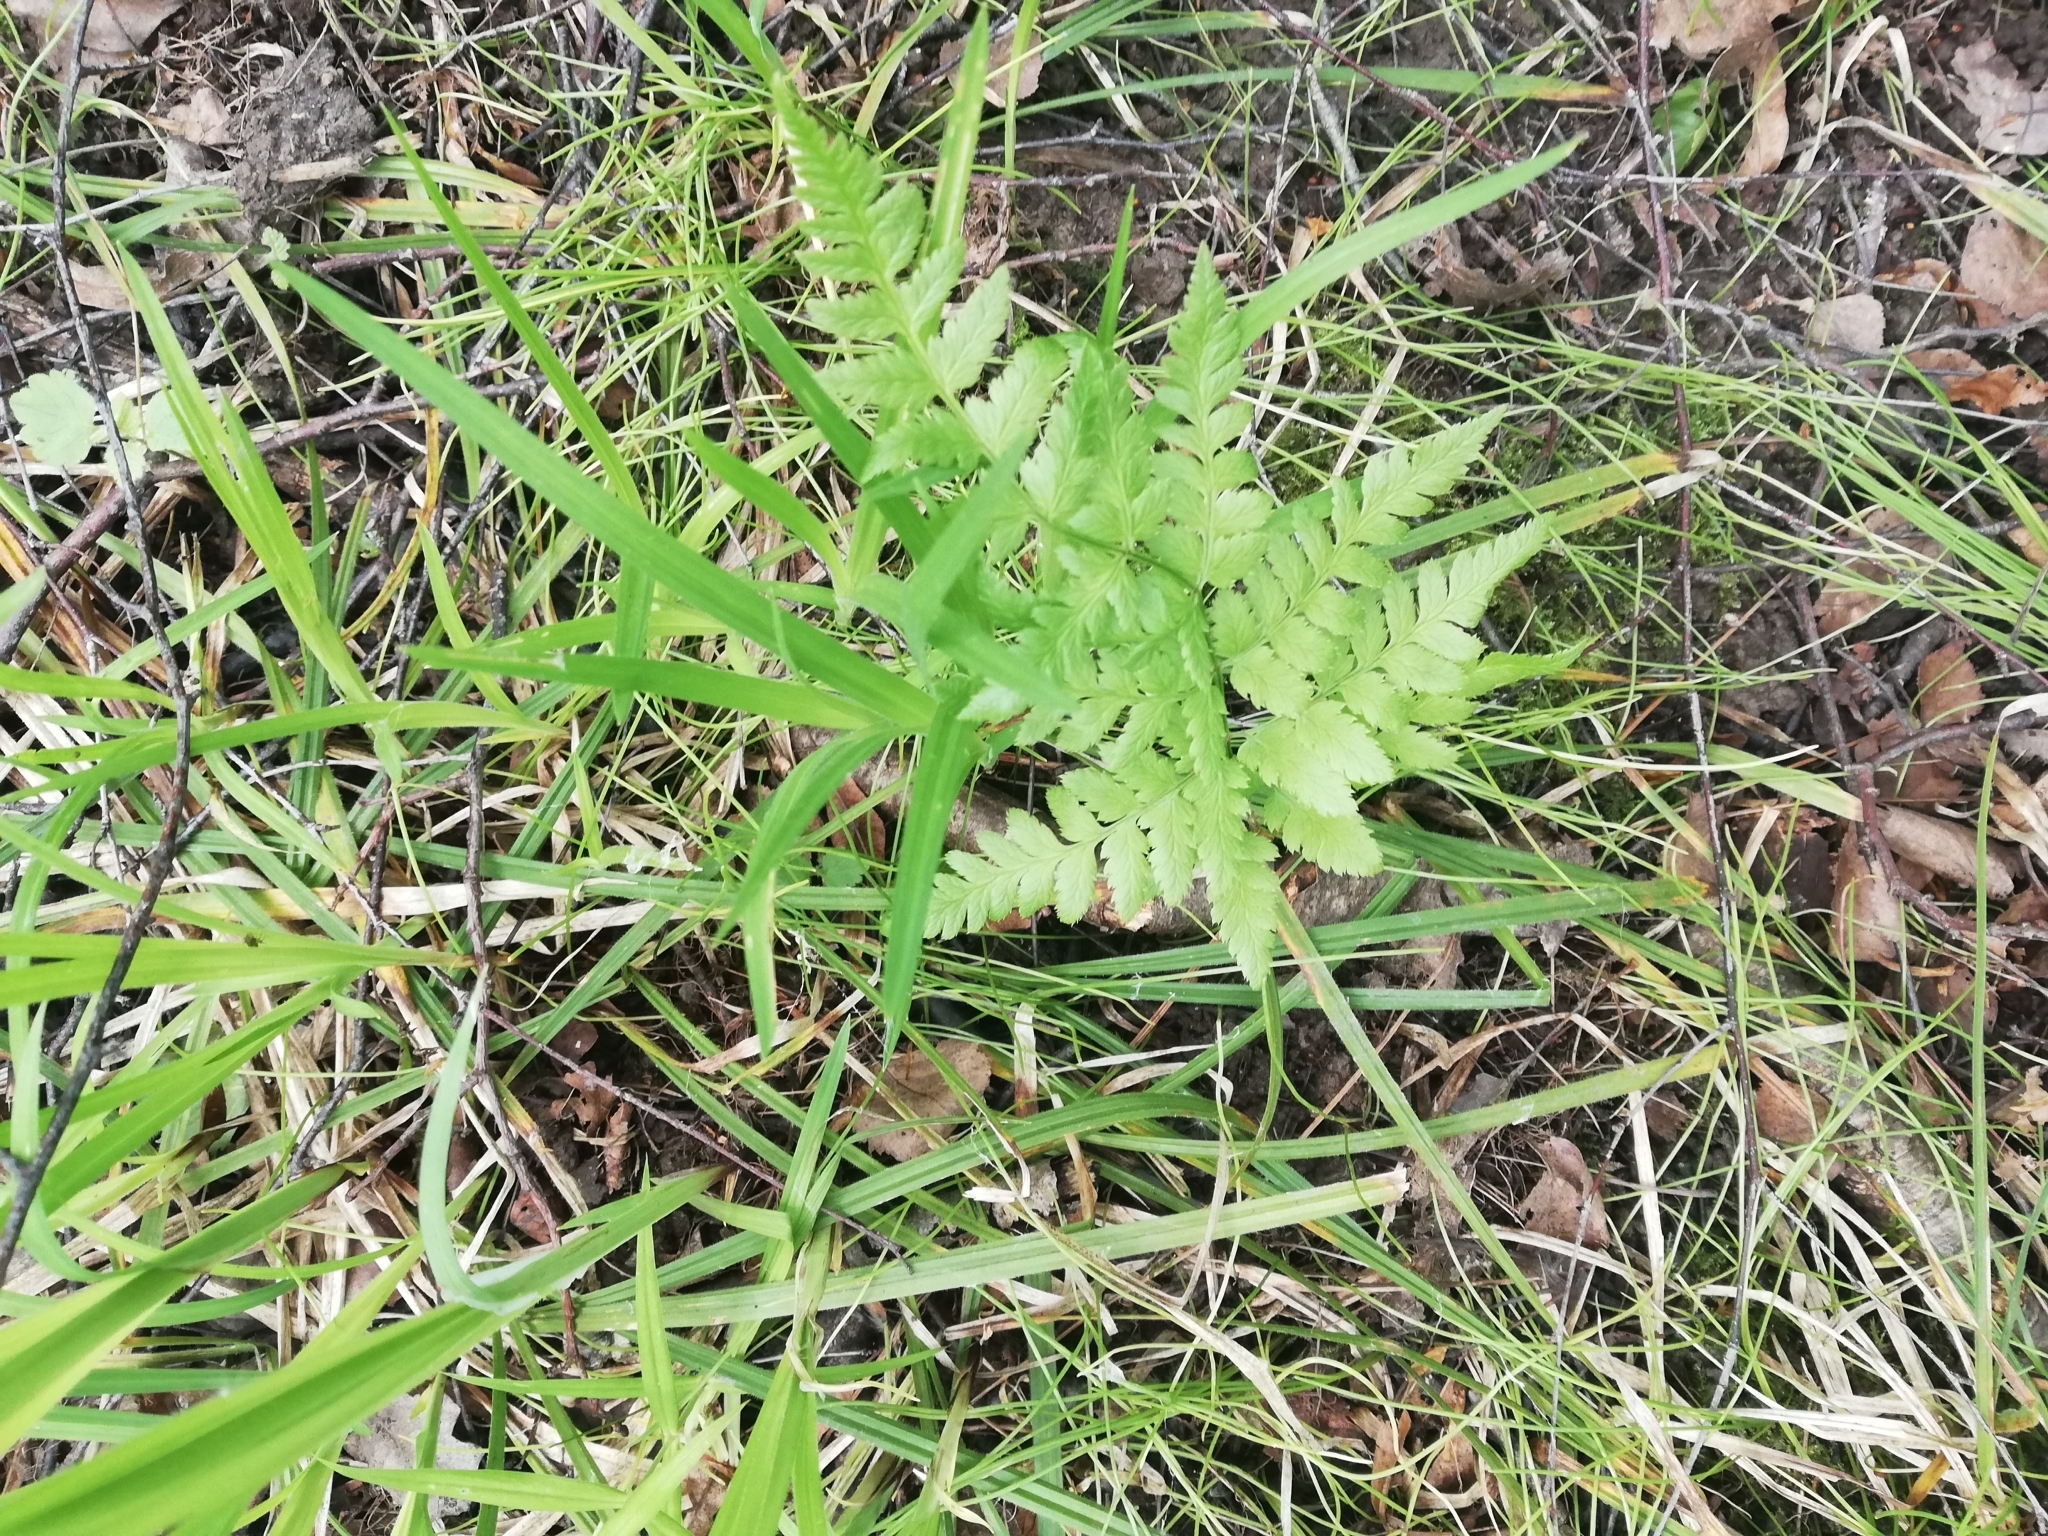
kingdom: Plantae
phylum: Tracheophyta
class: Polypodiopsida
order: Polypodiales
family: Dryopteridaceae
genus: Dryopteris
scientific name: Dryopteris carthusiana
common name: Narrow buckler-fern
